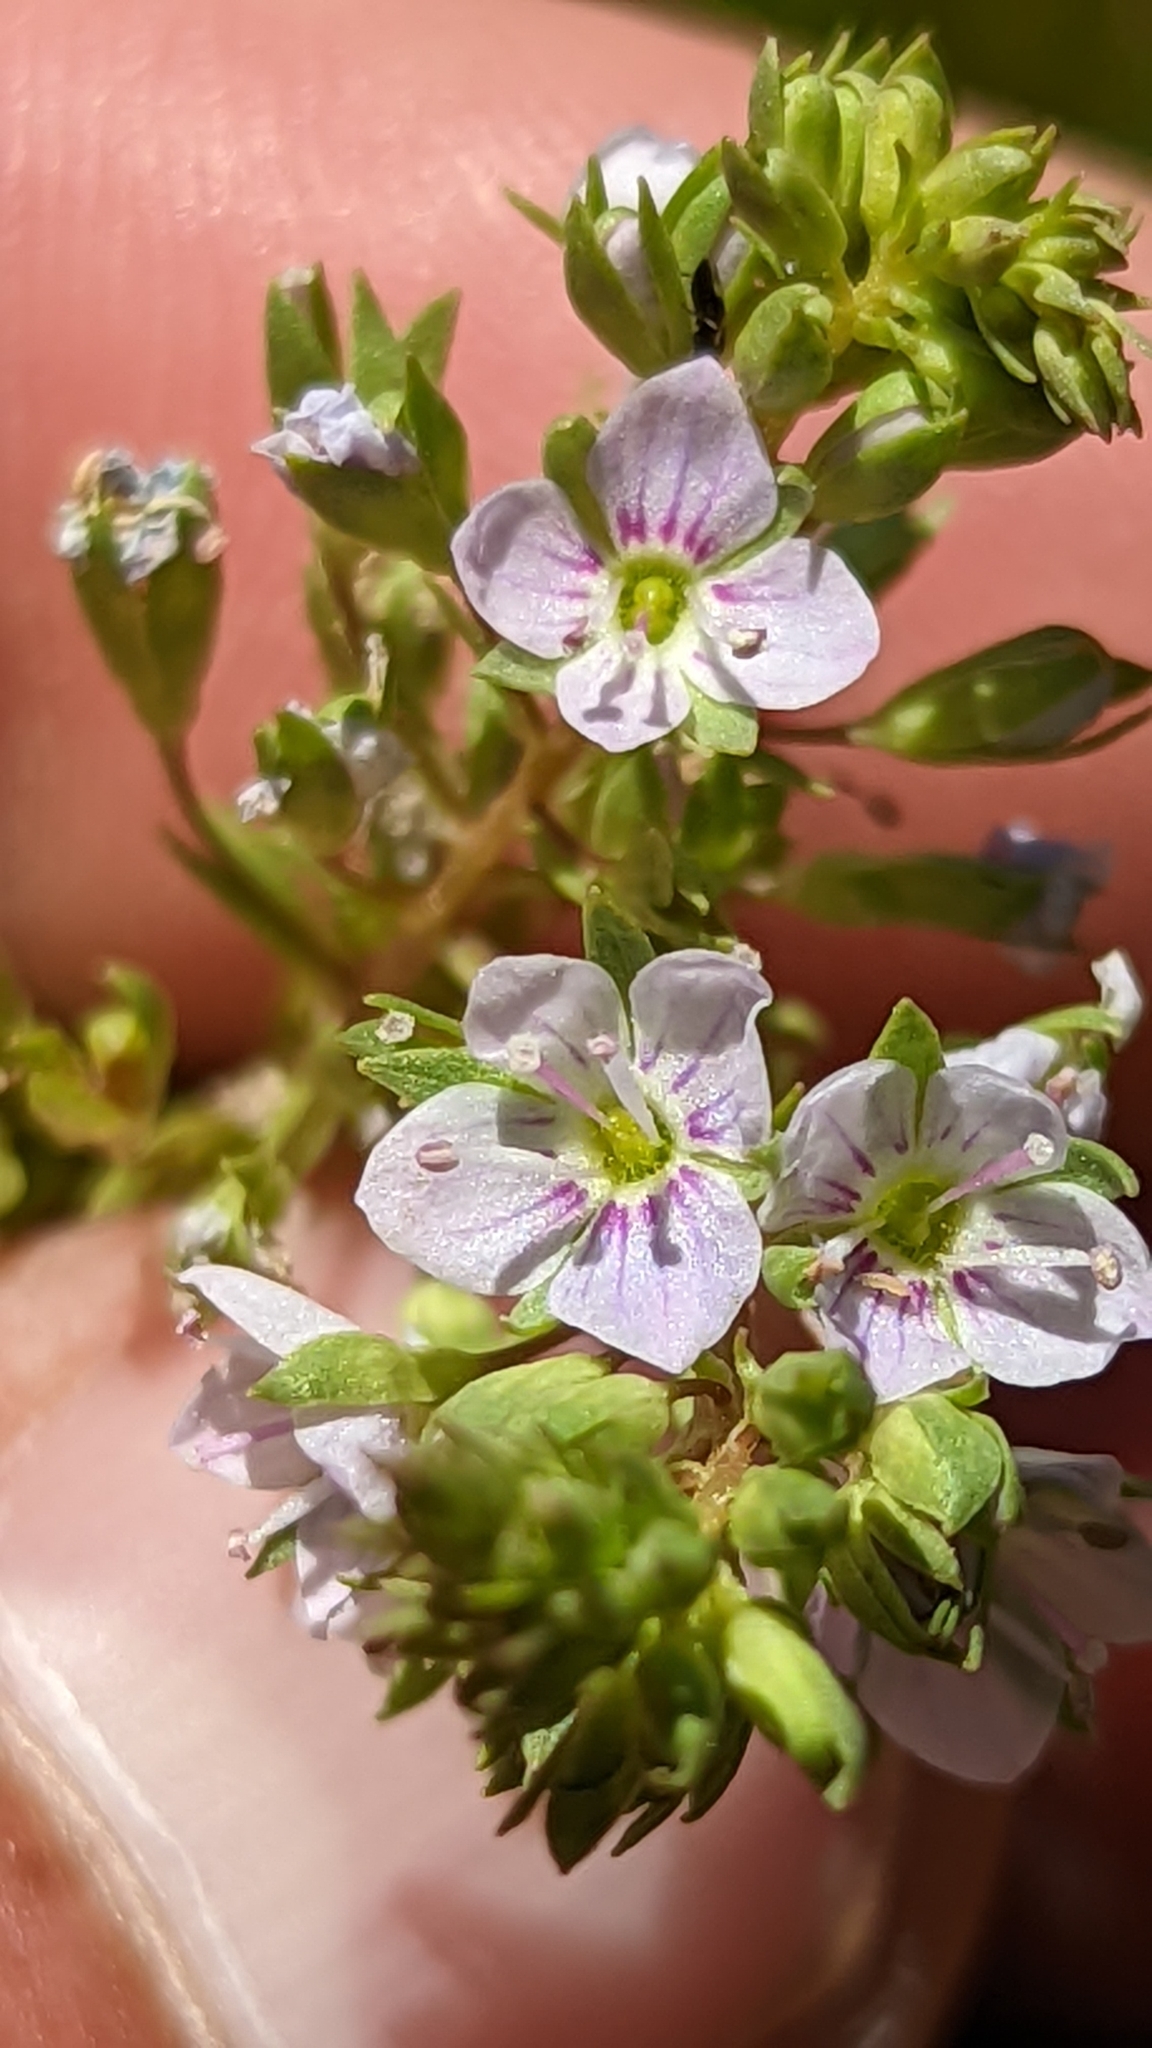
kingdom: Plantae
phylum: Tracheophyta
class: Magnoliopsida
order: Lamiales
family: Plantaginaceae
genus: Veronica
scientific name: Veronica anagallis-aquatica
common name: Water speedwell
